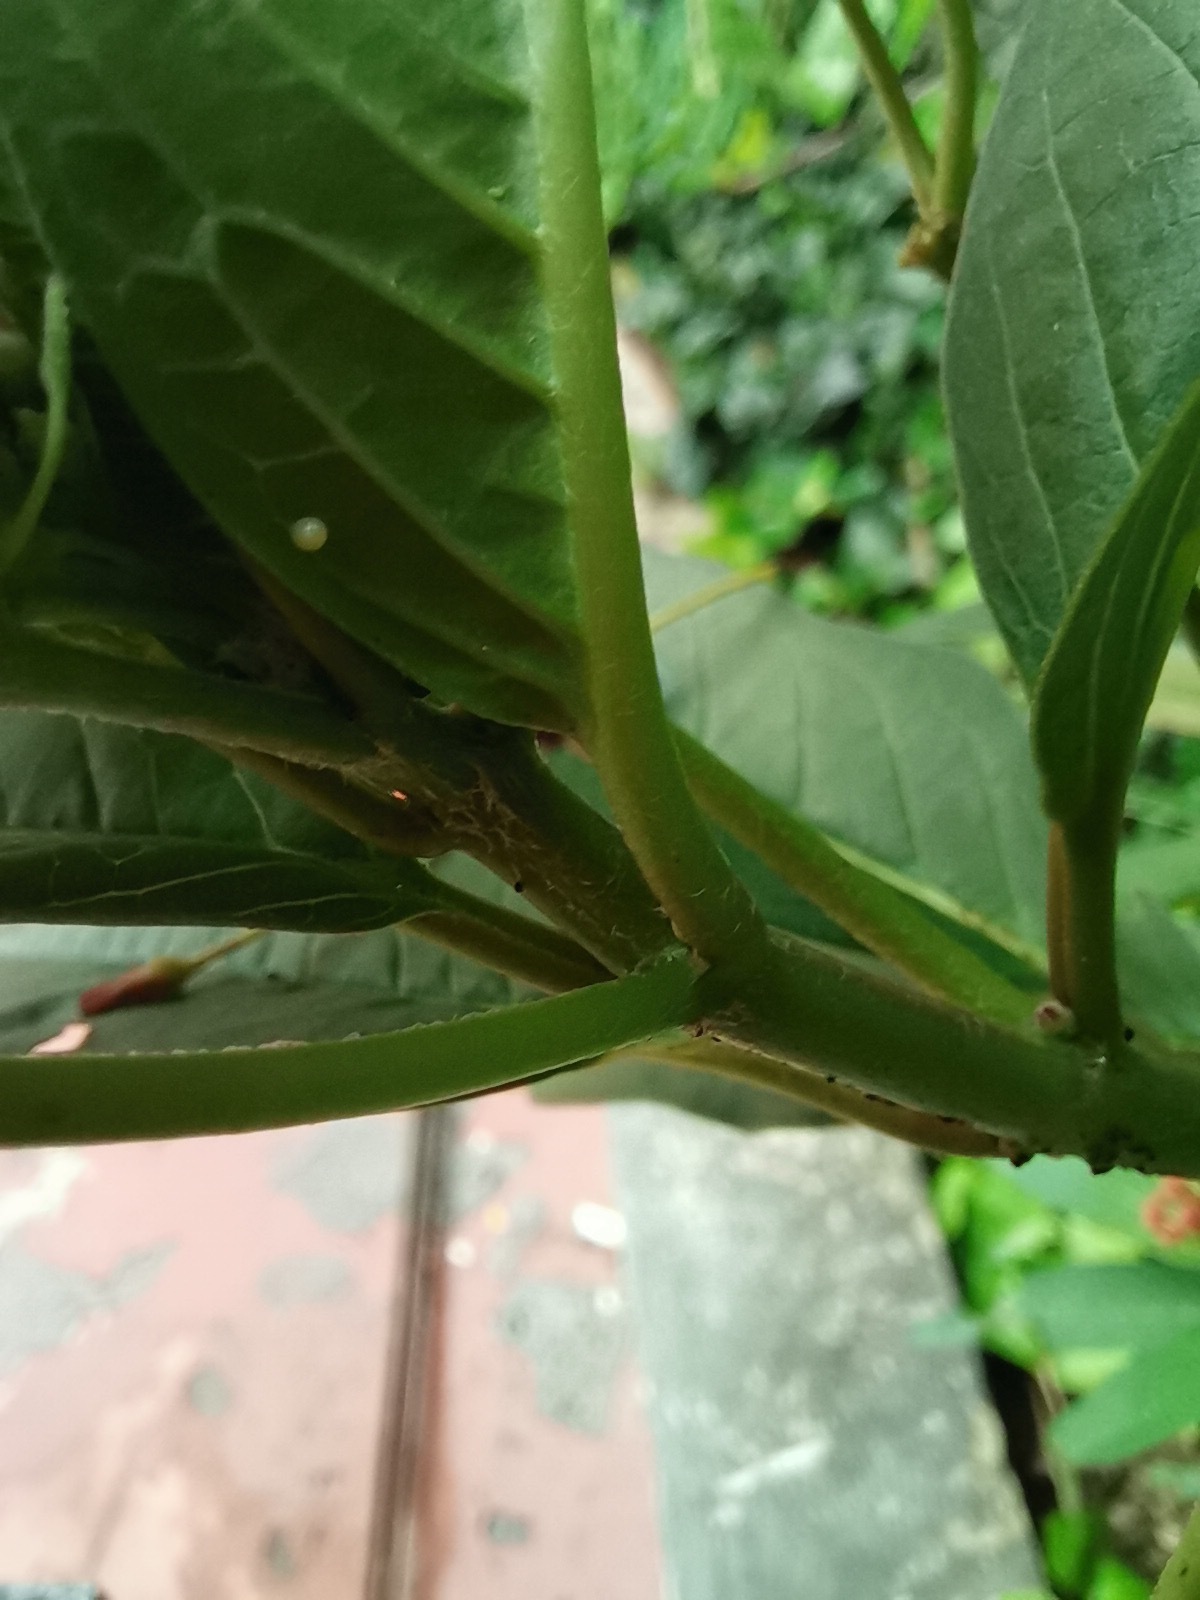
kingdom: Animalia
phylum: Arthropoda
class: Insecta
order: Lepidoptera
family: Nymphalidae
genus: Danaus
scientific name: Danaus plexippus
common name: Monarch
